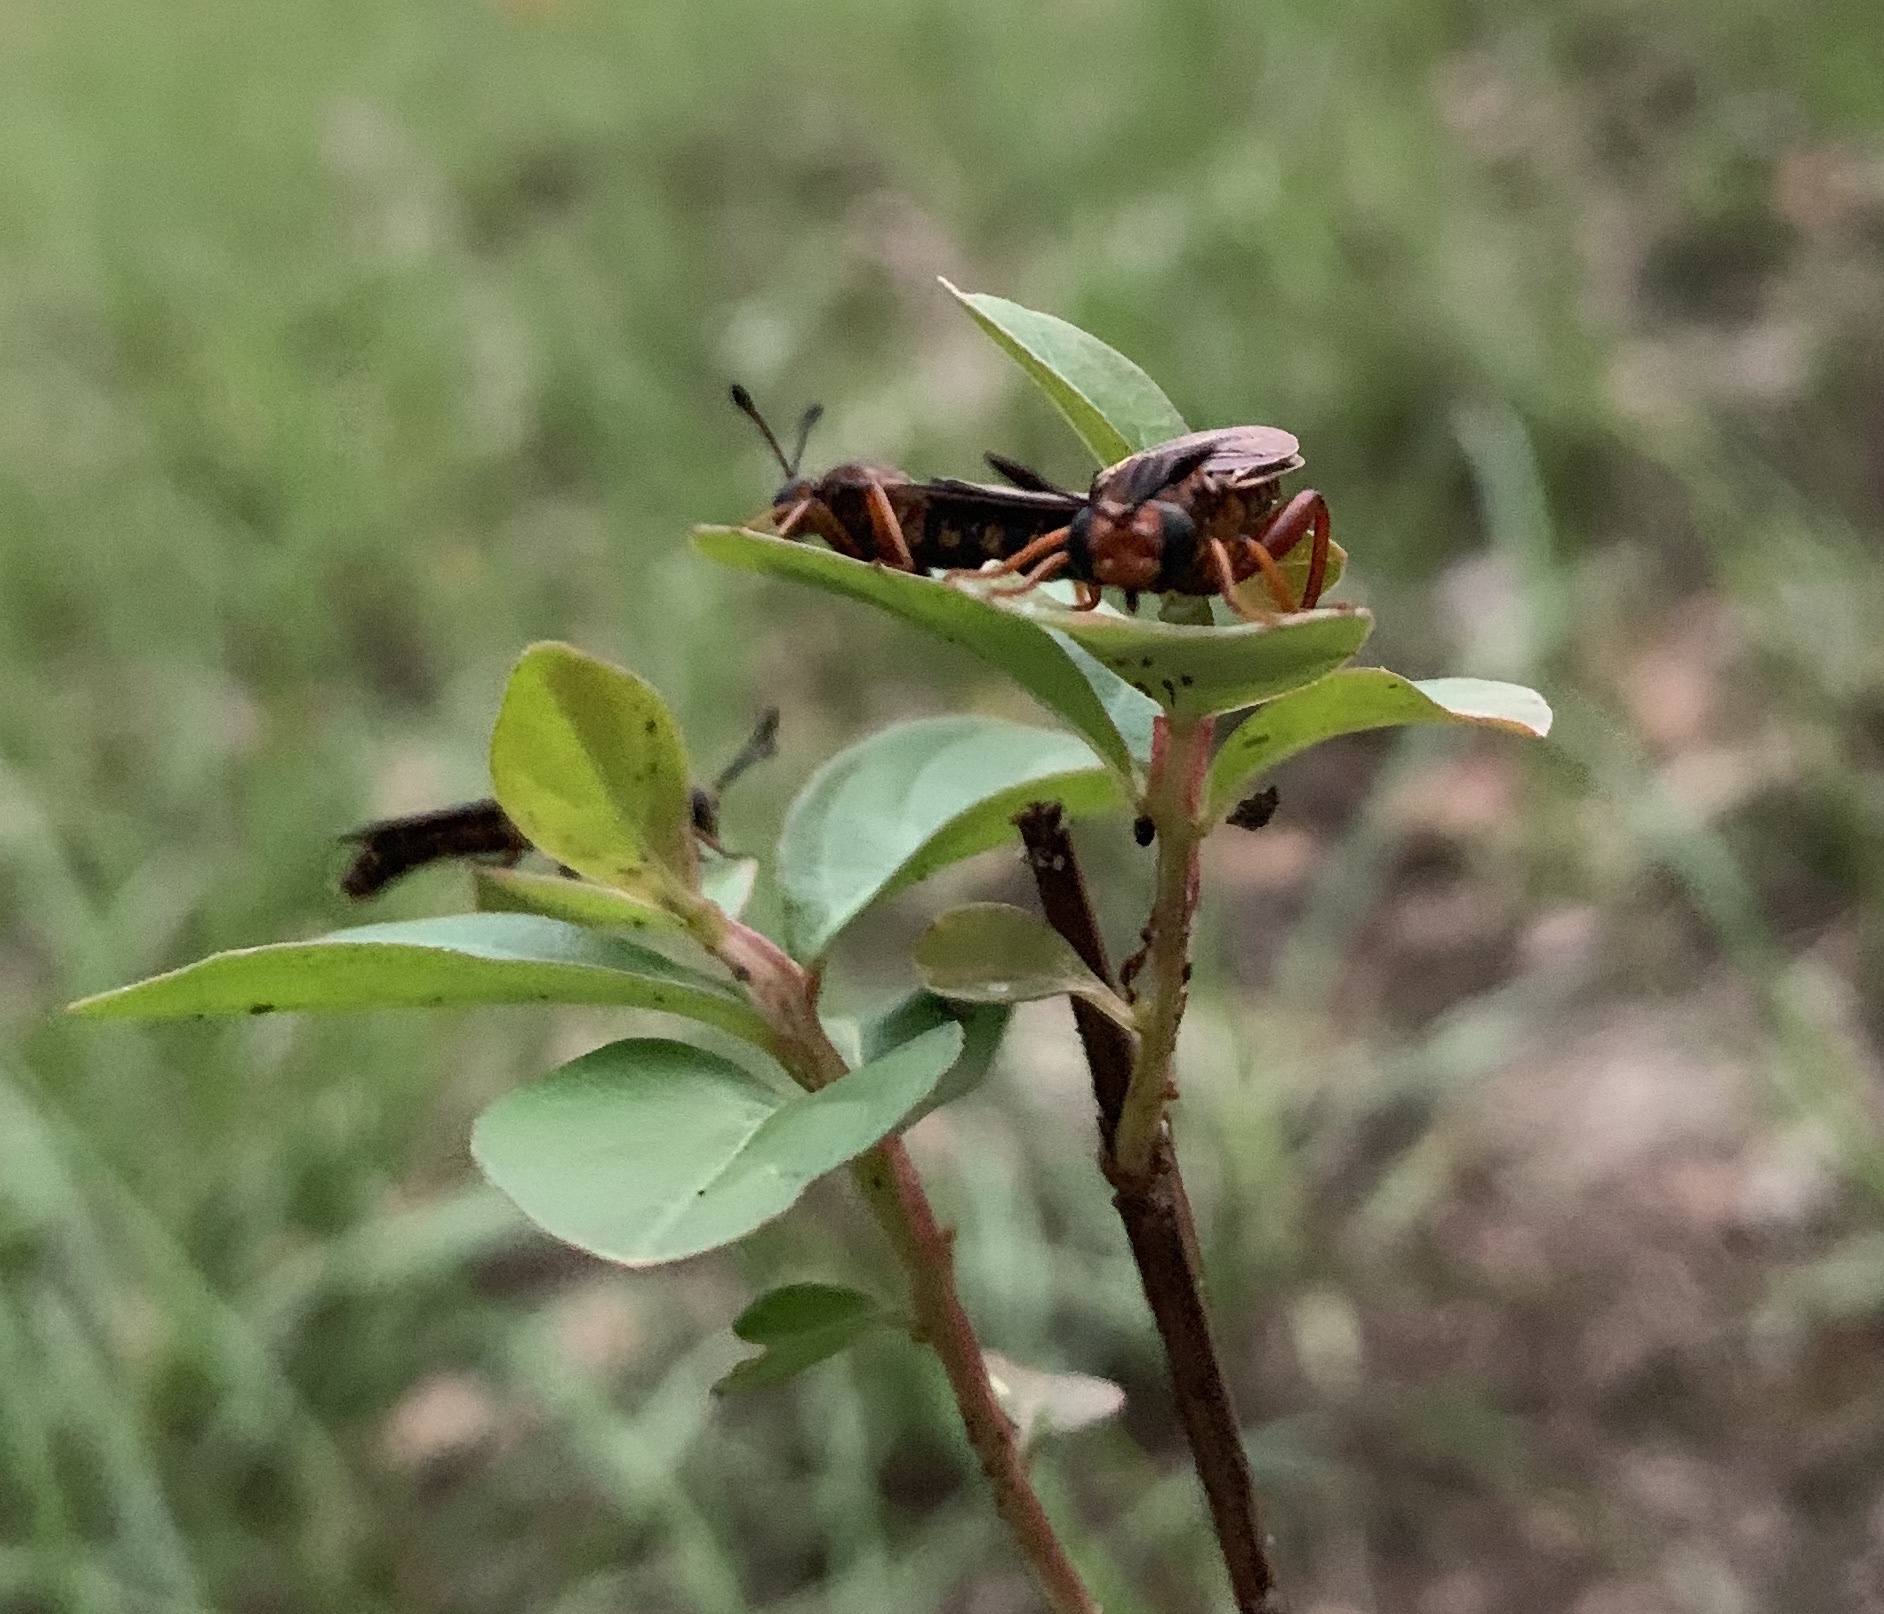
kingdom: Animalia
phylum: Arthropoda
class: Insecta
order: Diptera
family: Mydidae
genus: Phyllomydas
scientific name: Phyllomydas parvulus
